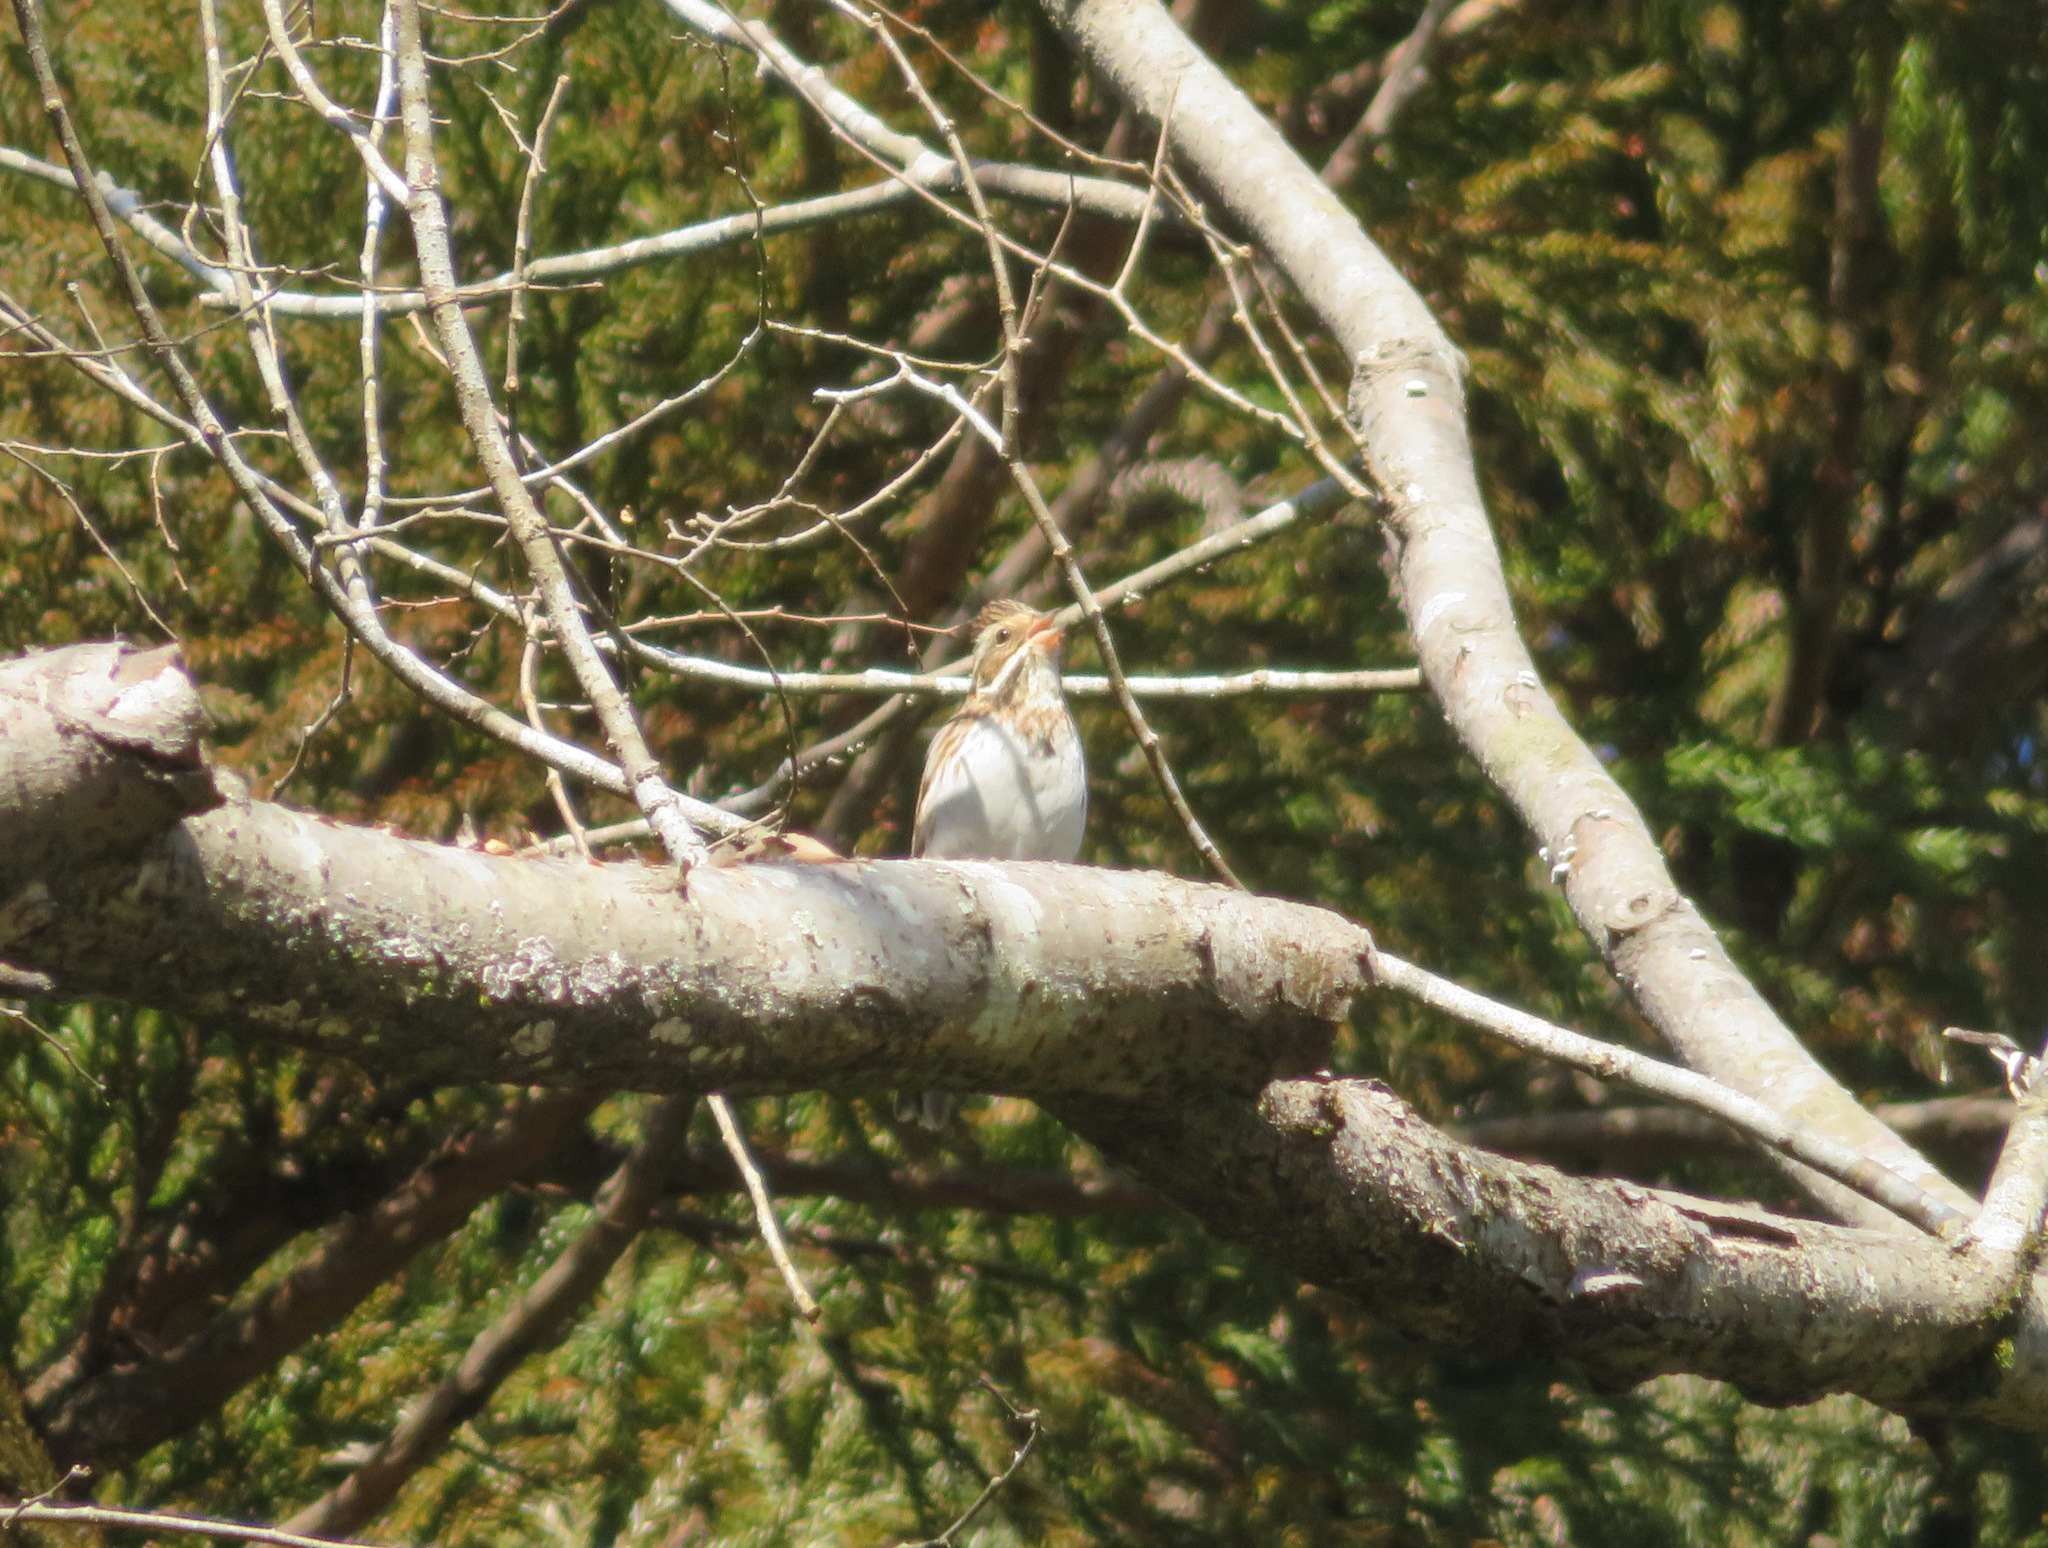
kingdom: Animalia
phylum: Chordata
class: Aves
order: Passeriformes
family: Emberizidae
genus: Emberiza
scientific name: Emberiza rustica
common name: Rustic bunting
